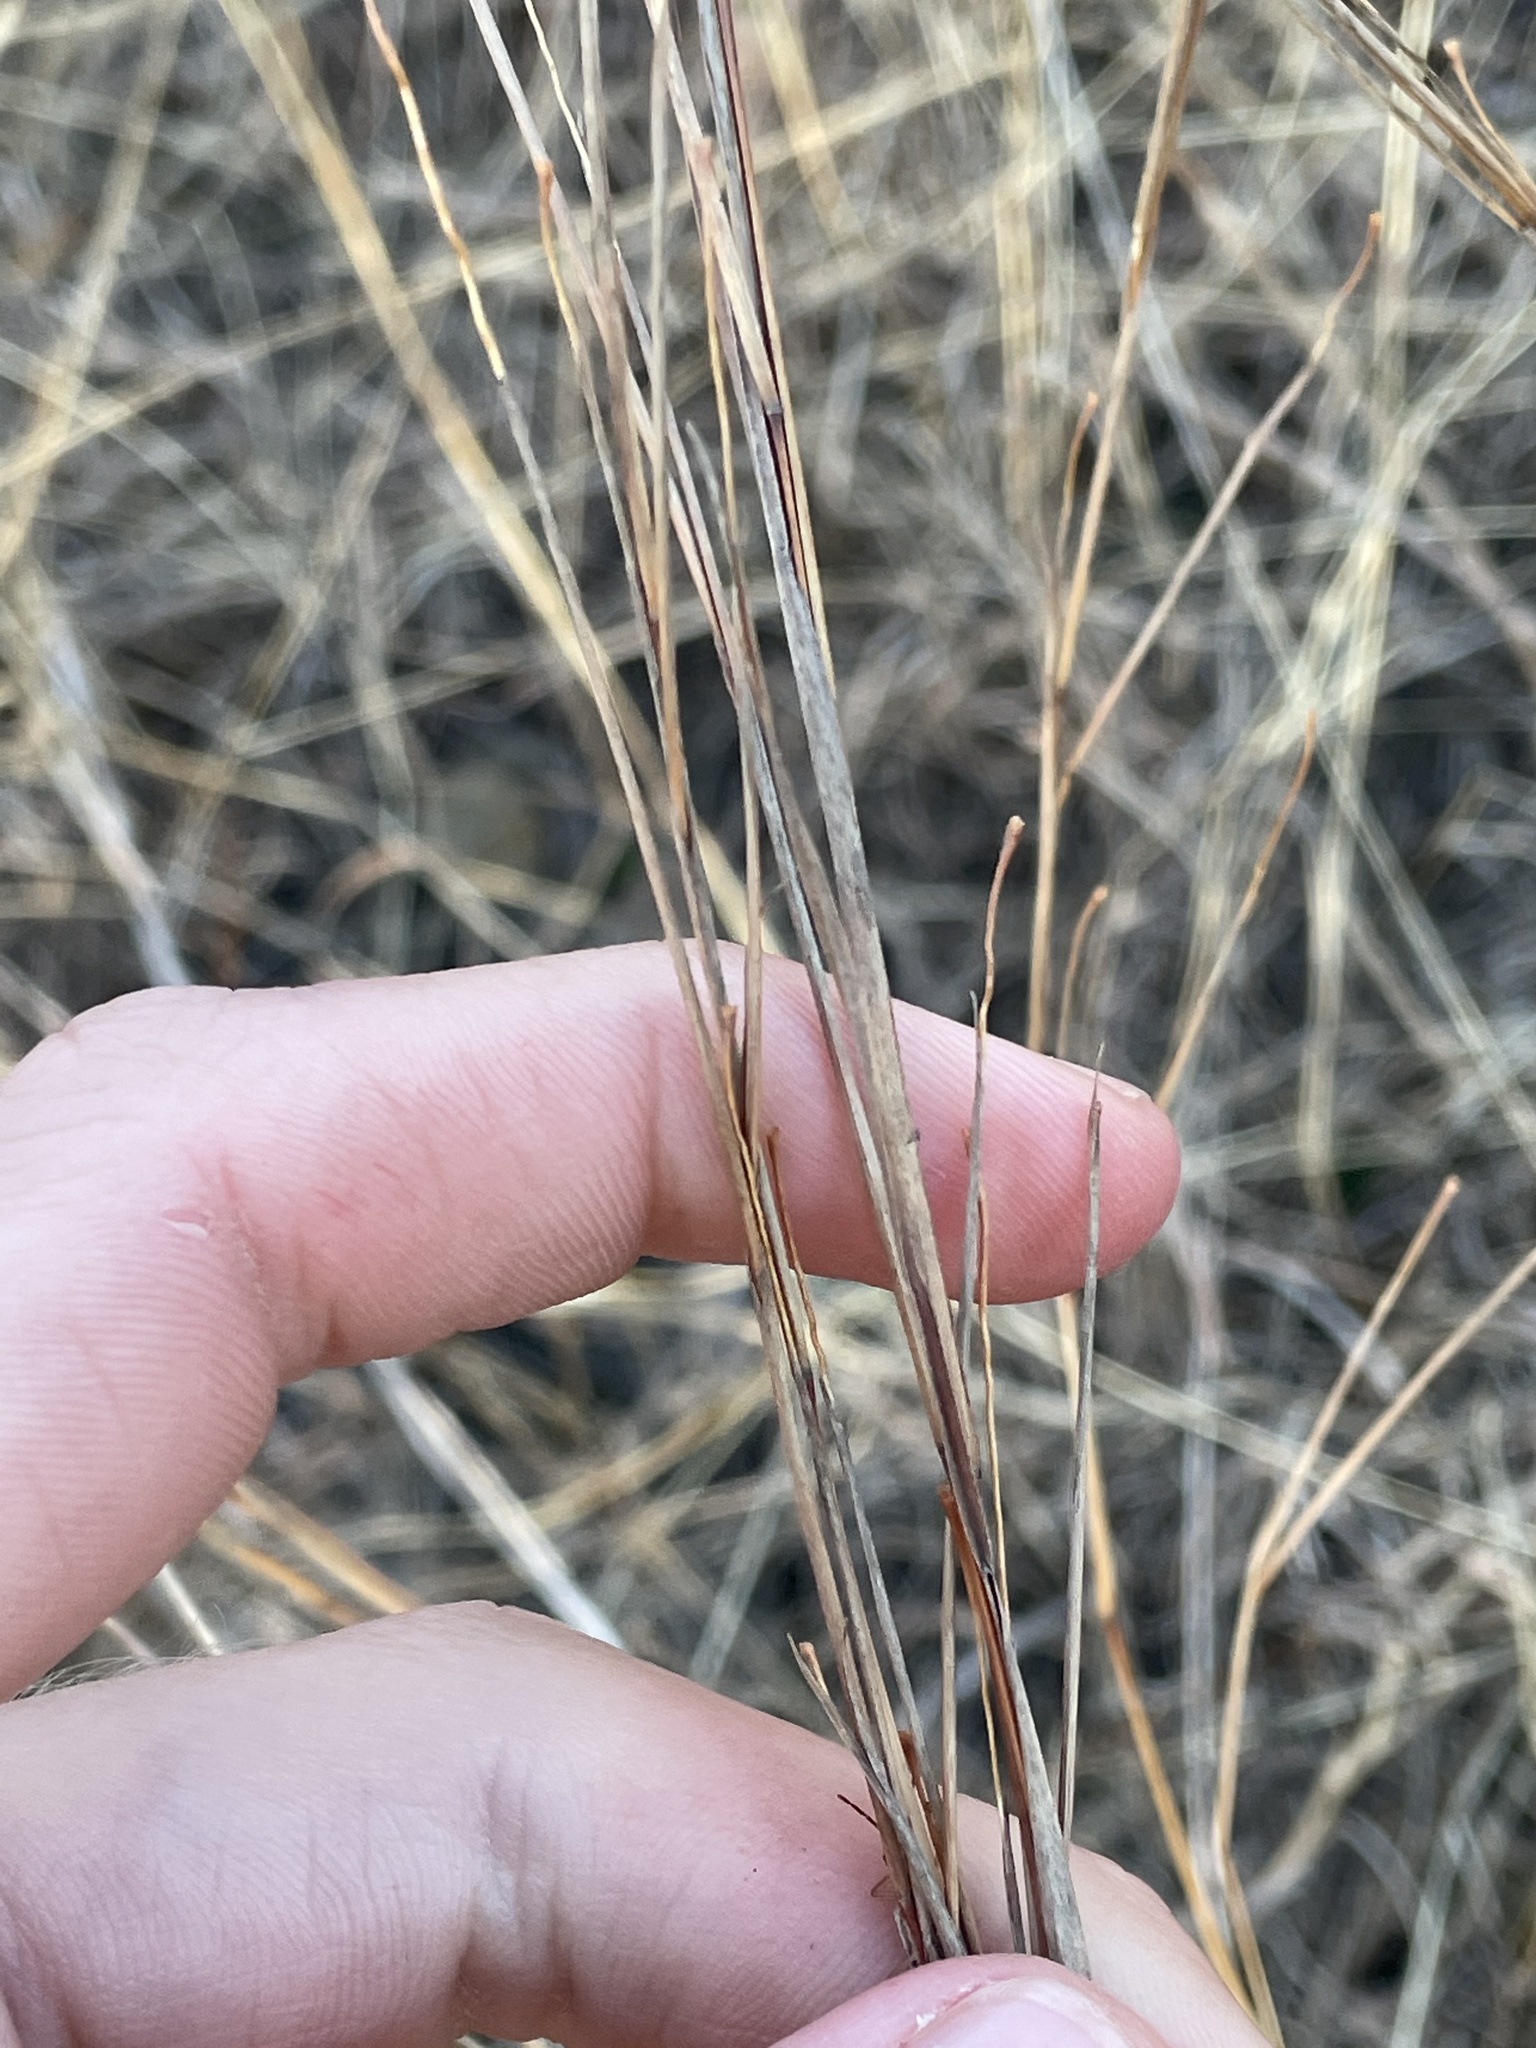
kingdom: Plantae
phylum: Tracheophyta
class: Liliopsida
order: Poales
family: Poaceae
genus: Schizachyrium
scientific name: Schizachyrium scoparium
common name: Little bluestem
